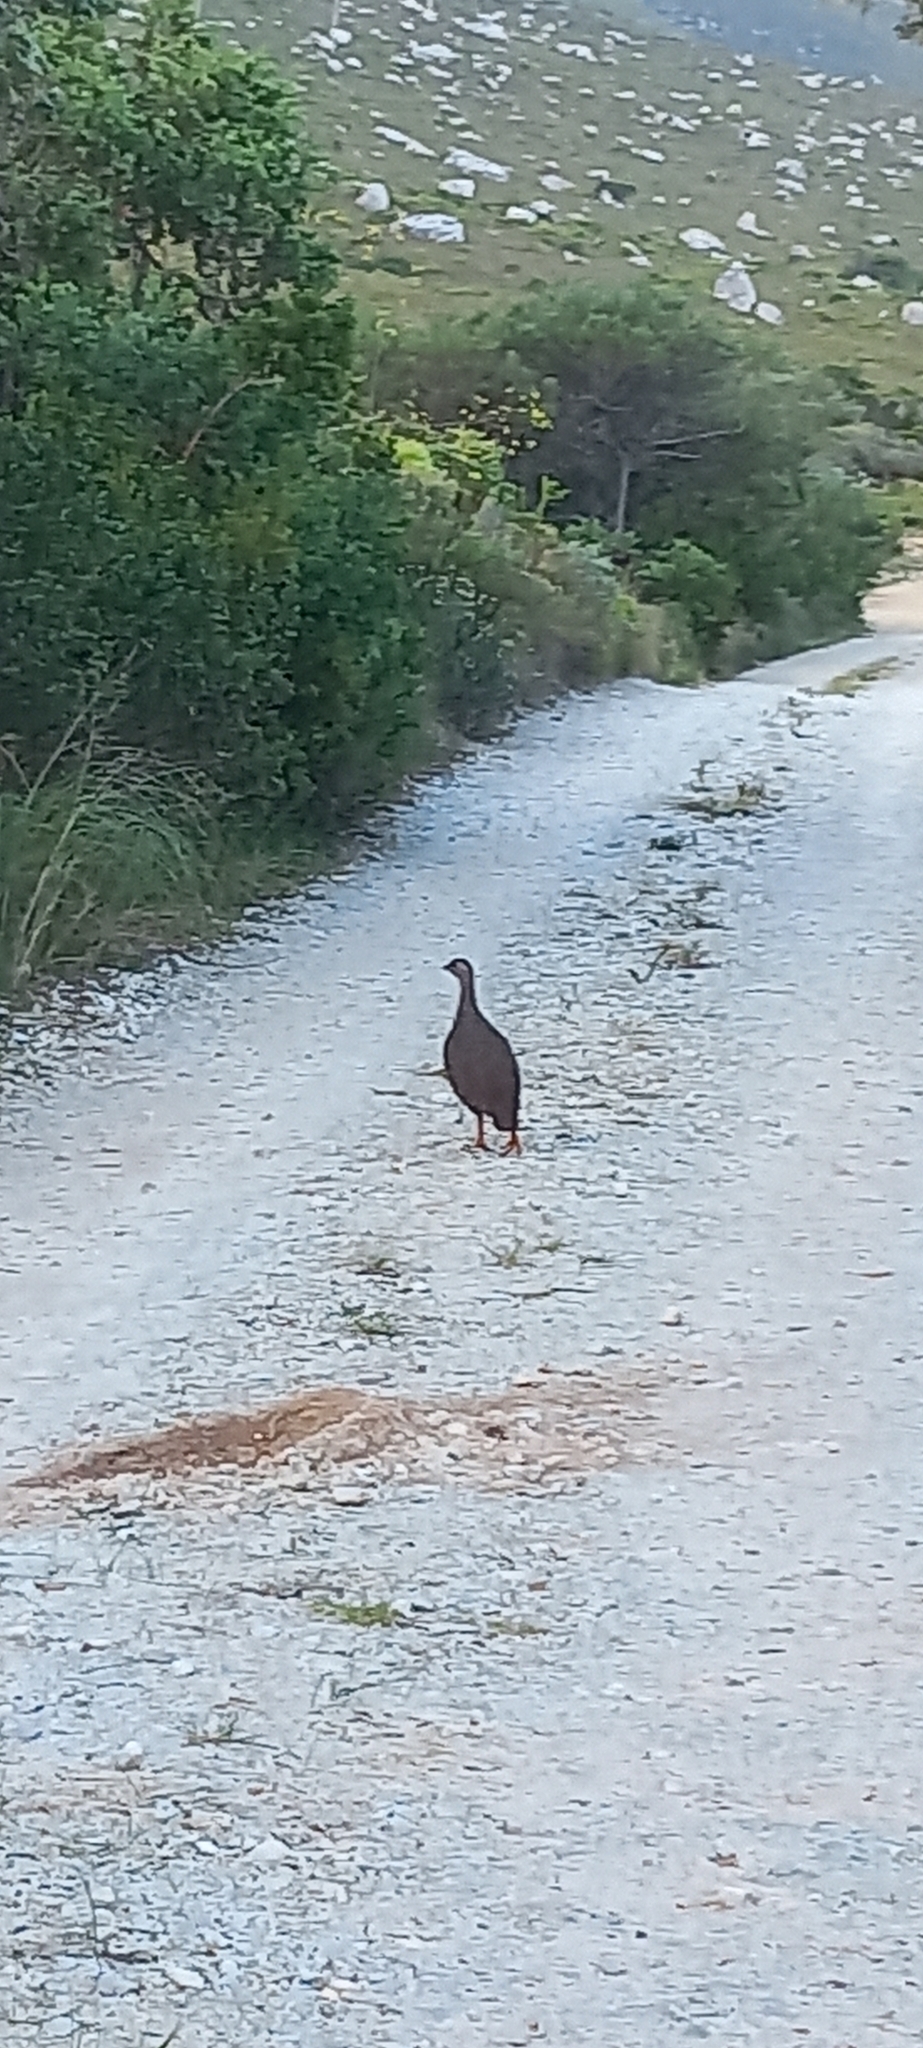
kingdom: Animalia
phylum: Chordata
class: Aves
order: Galliformes
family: Phasianidae
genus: Pternistis
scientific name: Pternistis capensis
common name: Cape spurfowl
